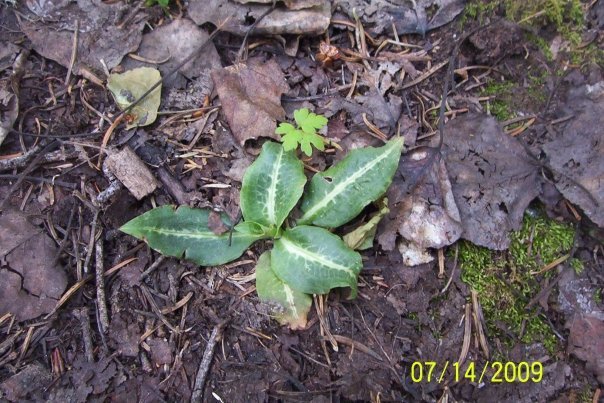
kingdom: Plantae
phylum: Tracheophyta
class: Liliopsida
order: Asparagales
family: Orchidaceae
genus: Goodyera
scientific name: Goodyera oblongifolia
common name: Giant rattlesnake-plantain
